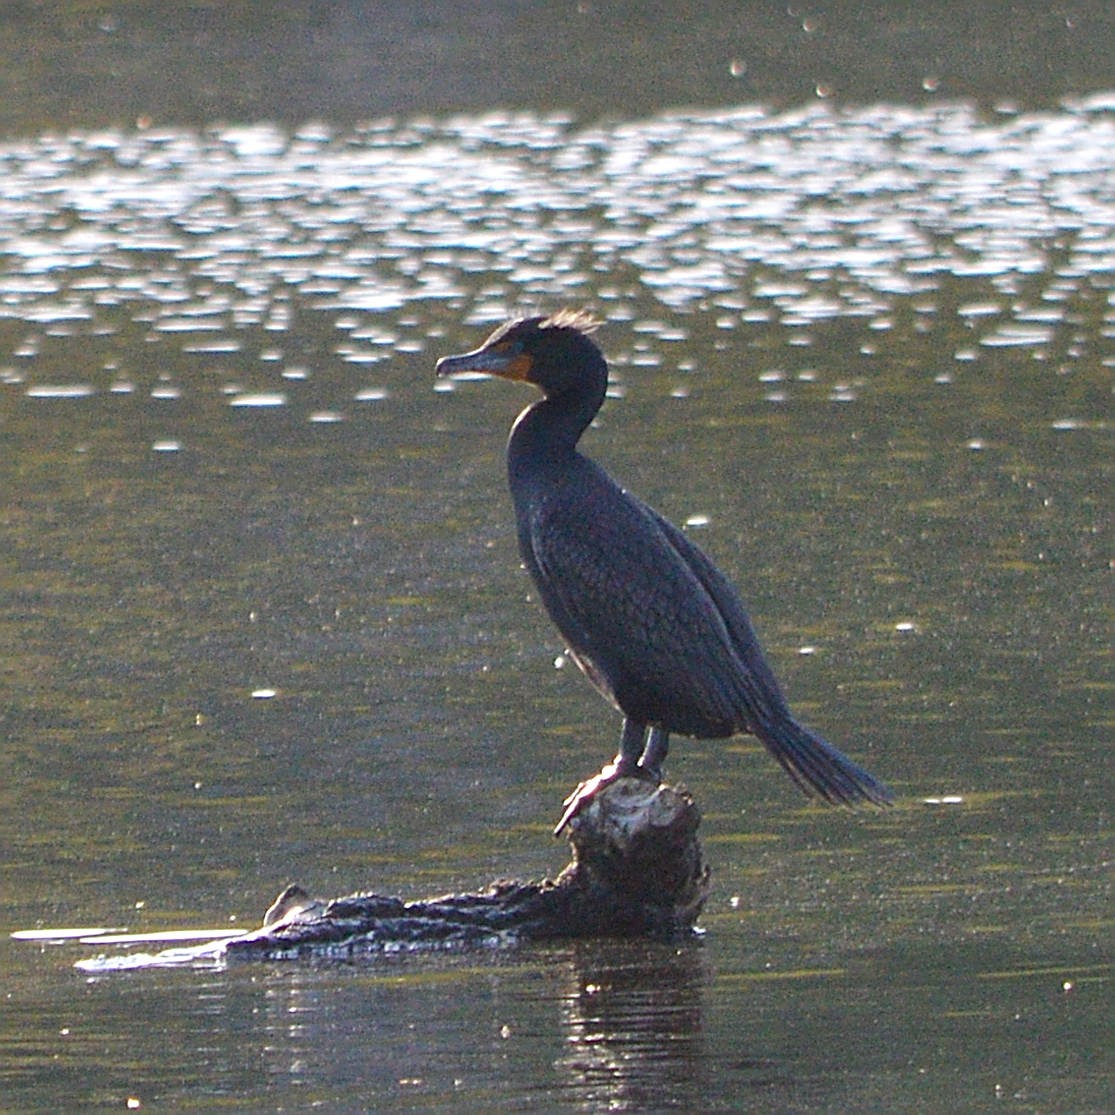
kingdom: Animalia
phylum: Chordata
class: Aves
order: Suliformes
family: Phalacrocoracidae
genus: Phalacrocorax
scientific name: Phalacrocorax auritus
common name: Double-crested cormorant
